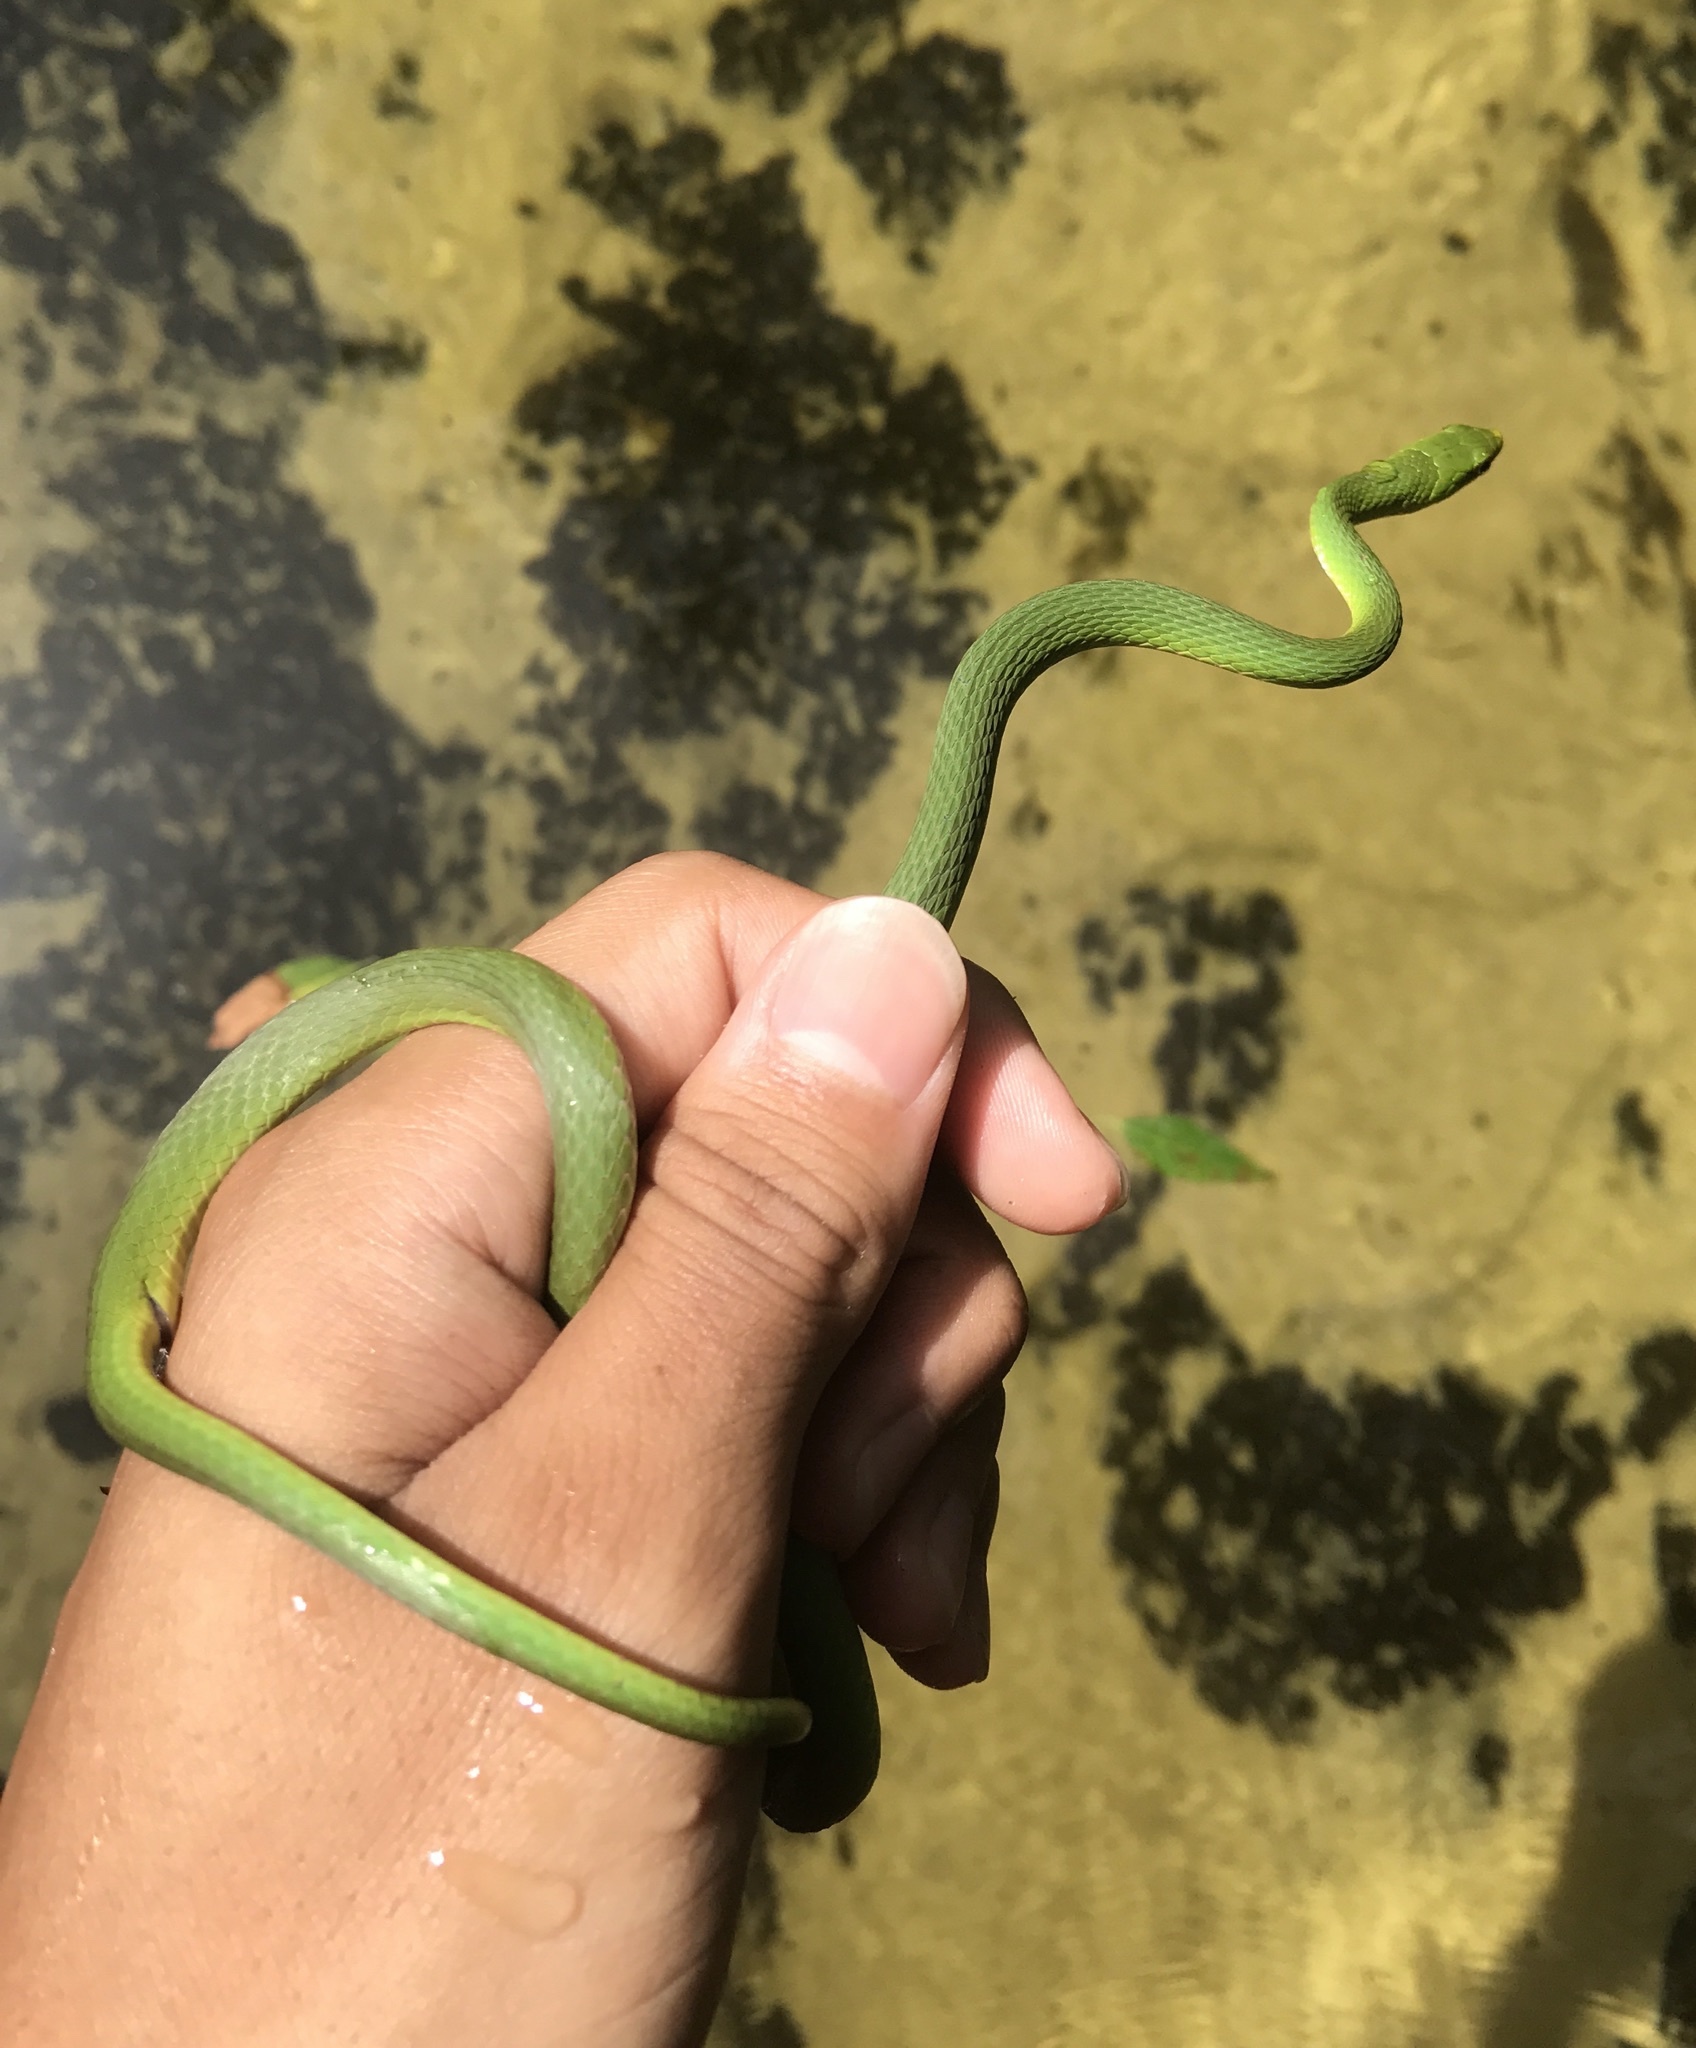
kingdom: Animalia
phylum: Chordata
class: Squamata
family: Colubridae
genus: Opheodrys
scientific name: Opheodrys aestivus
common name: Rough greensnake
